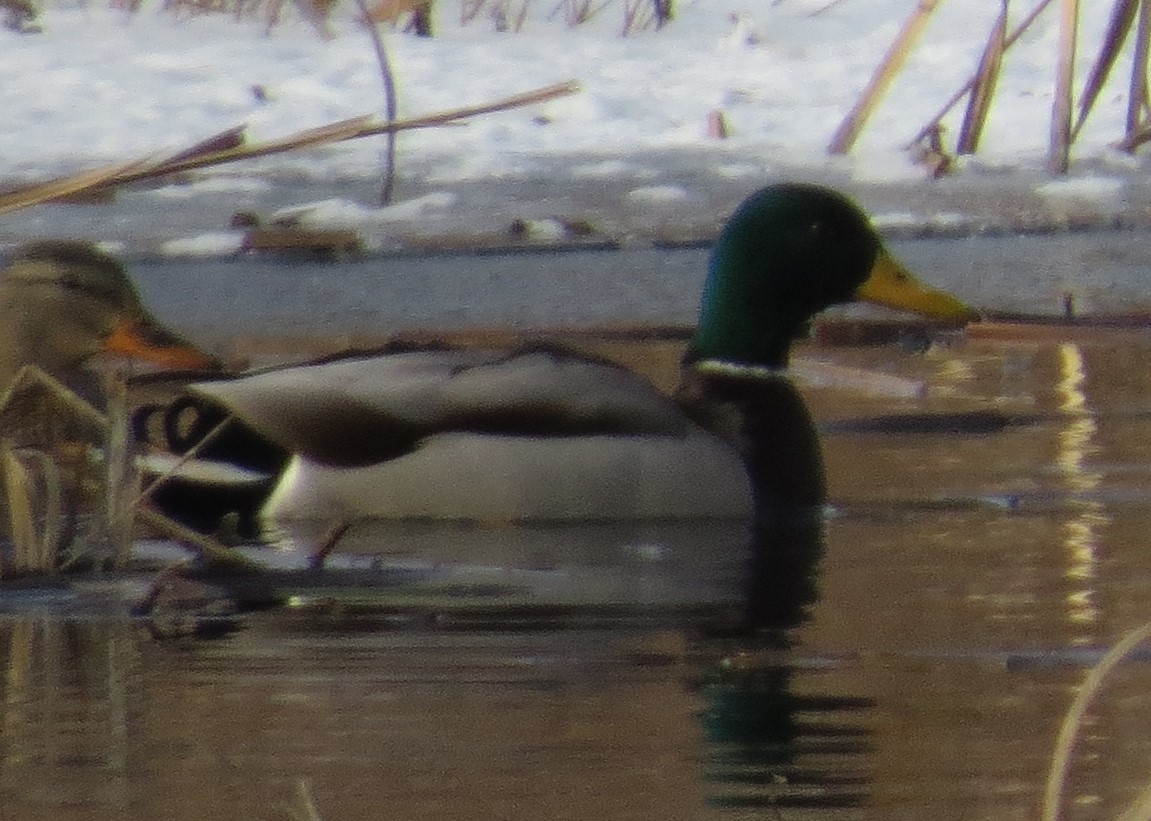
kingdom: Animalia
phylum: Chordata
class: Aves
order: Anseriformes
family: Anatidae
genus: Anas
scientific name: Anas platyrhynchos
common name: Mallard
